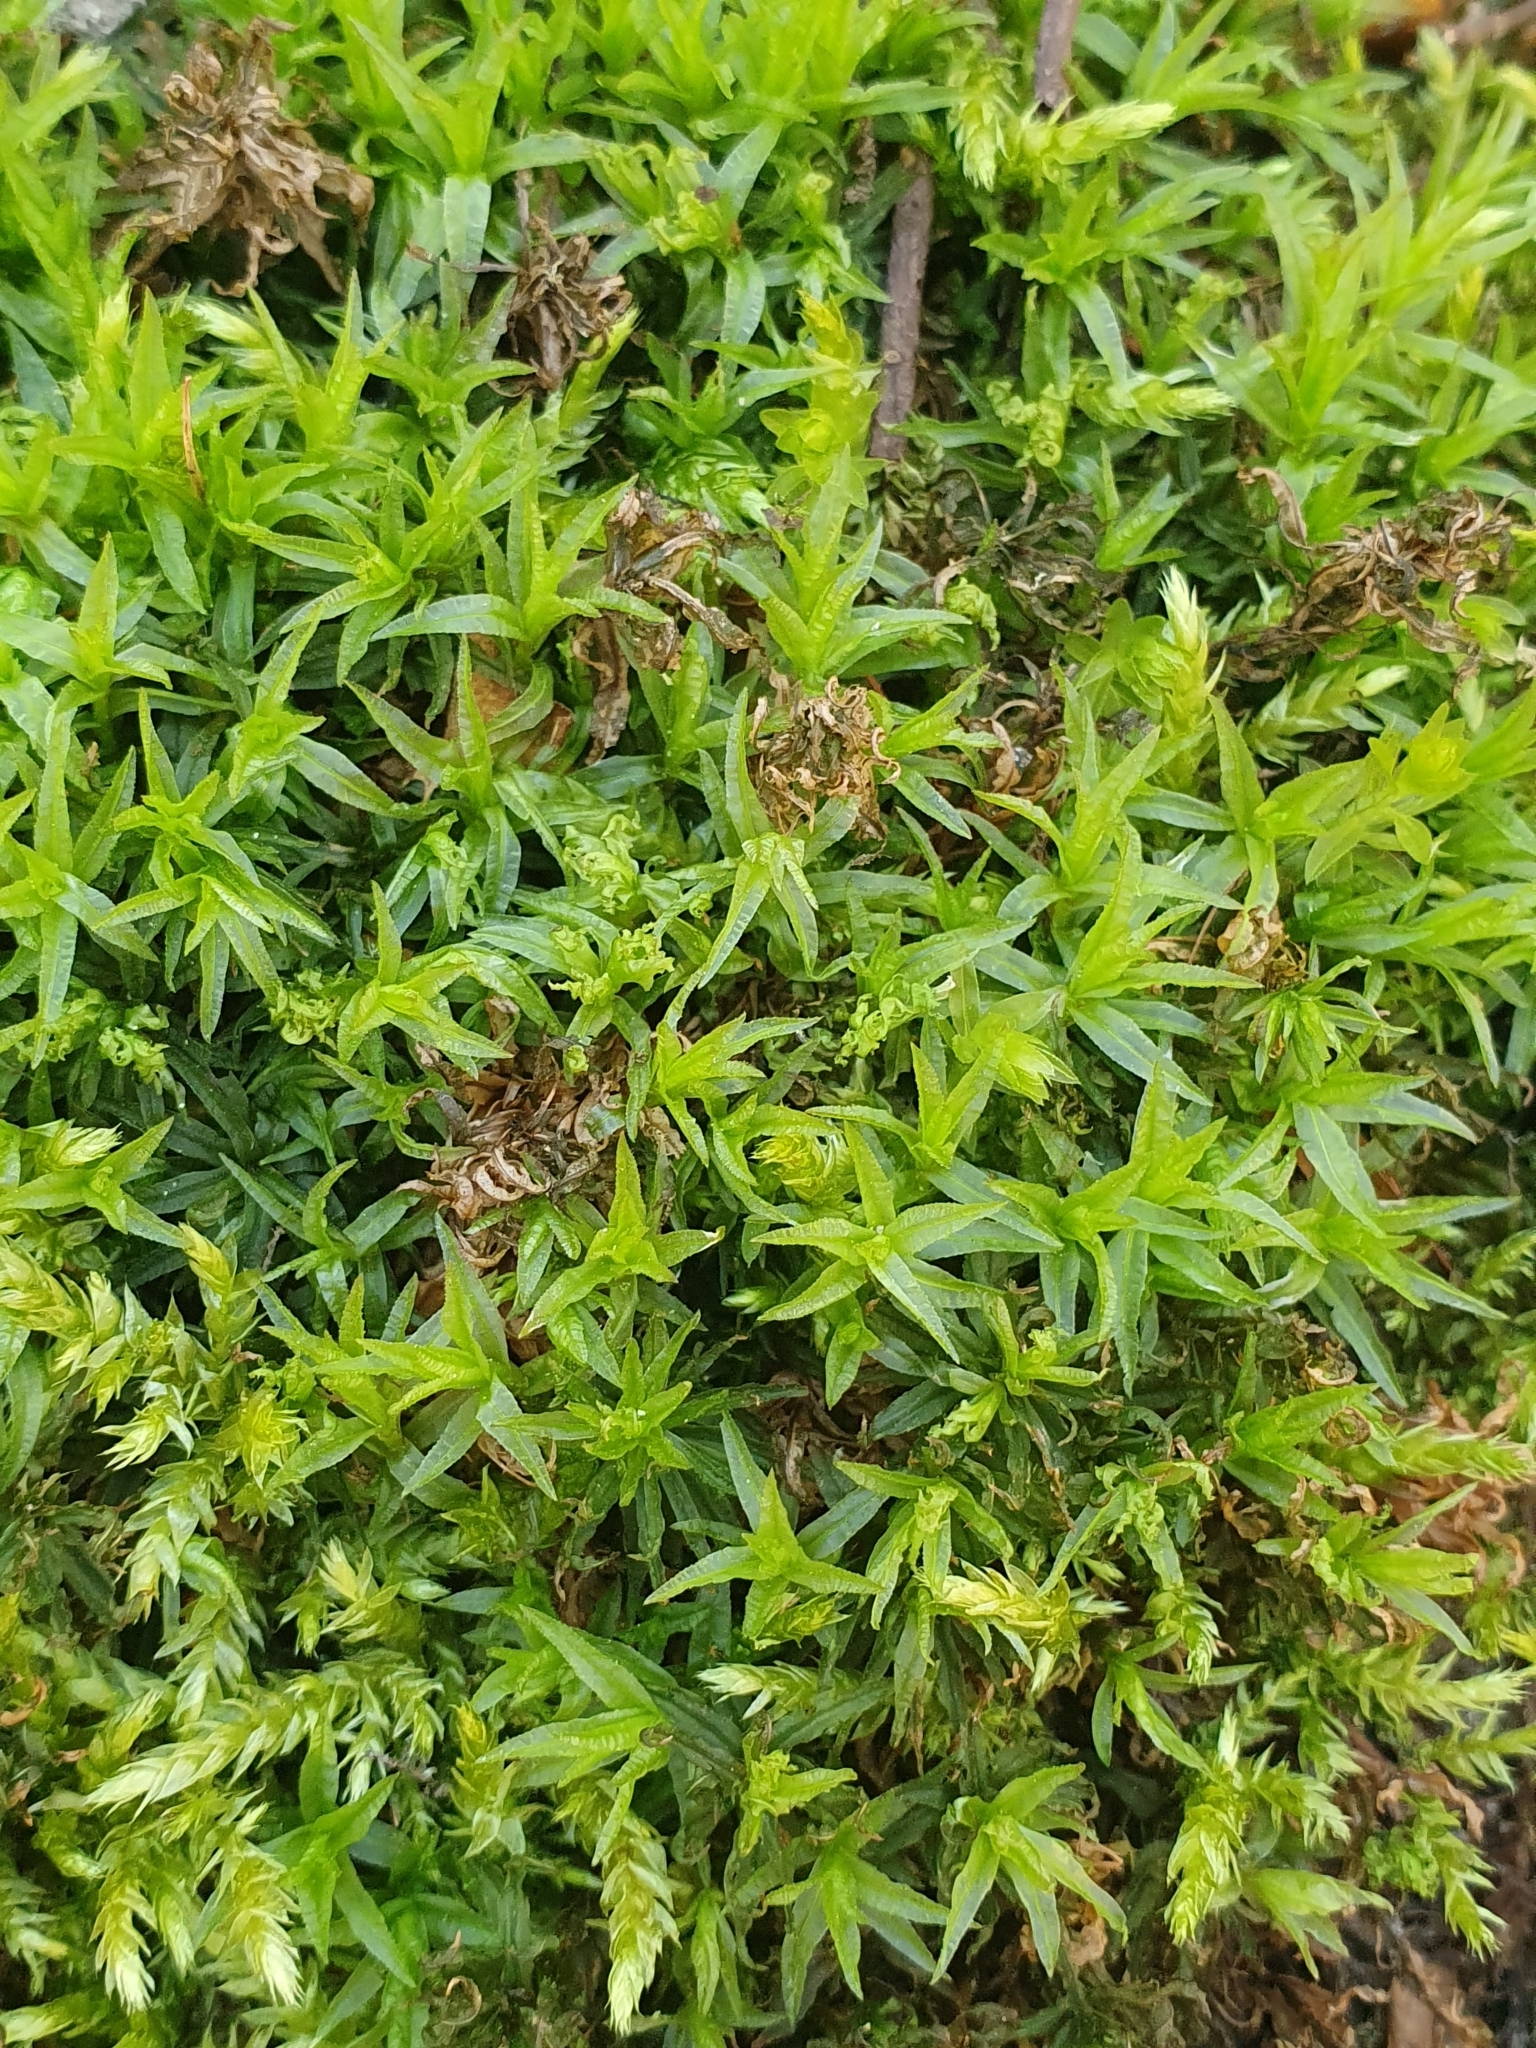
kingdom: Plantae
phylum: Bryophyta
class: Polytrichopsida
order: Polytrichales
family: Polytrichaceae
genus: Atrichum
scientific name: Atrichum undulatum
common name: Common smoothcap
